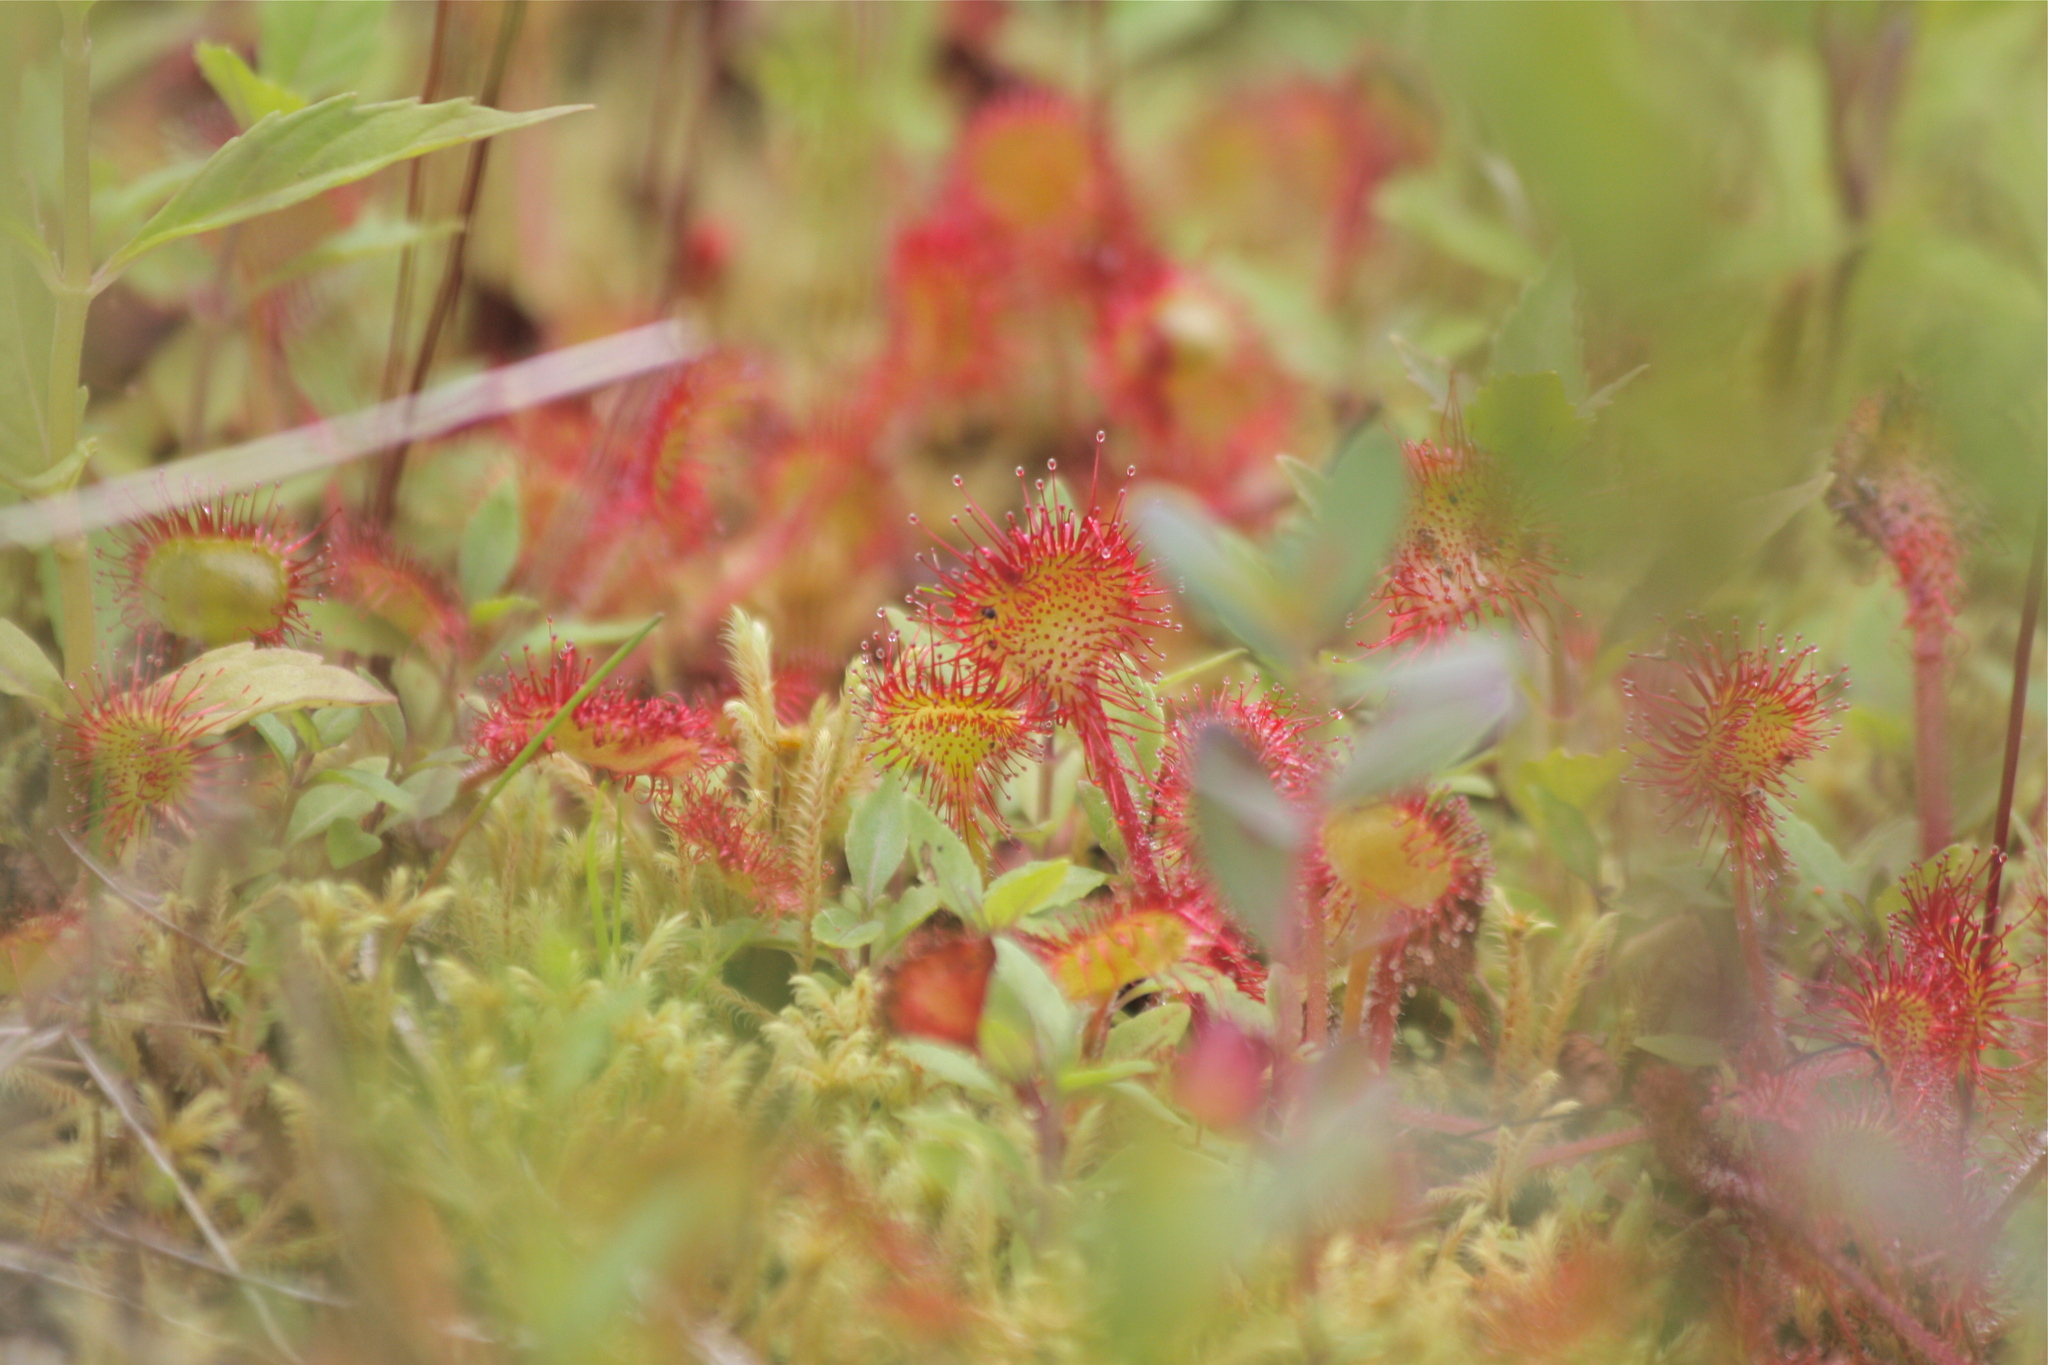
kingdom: Plantae
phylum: Tracheophyta
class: Magnoliopsida
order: Caryophyllales
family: Droseraceae
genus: Drosera
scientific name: Drosera rotundifolia
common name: Round-leaved sundew
